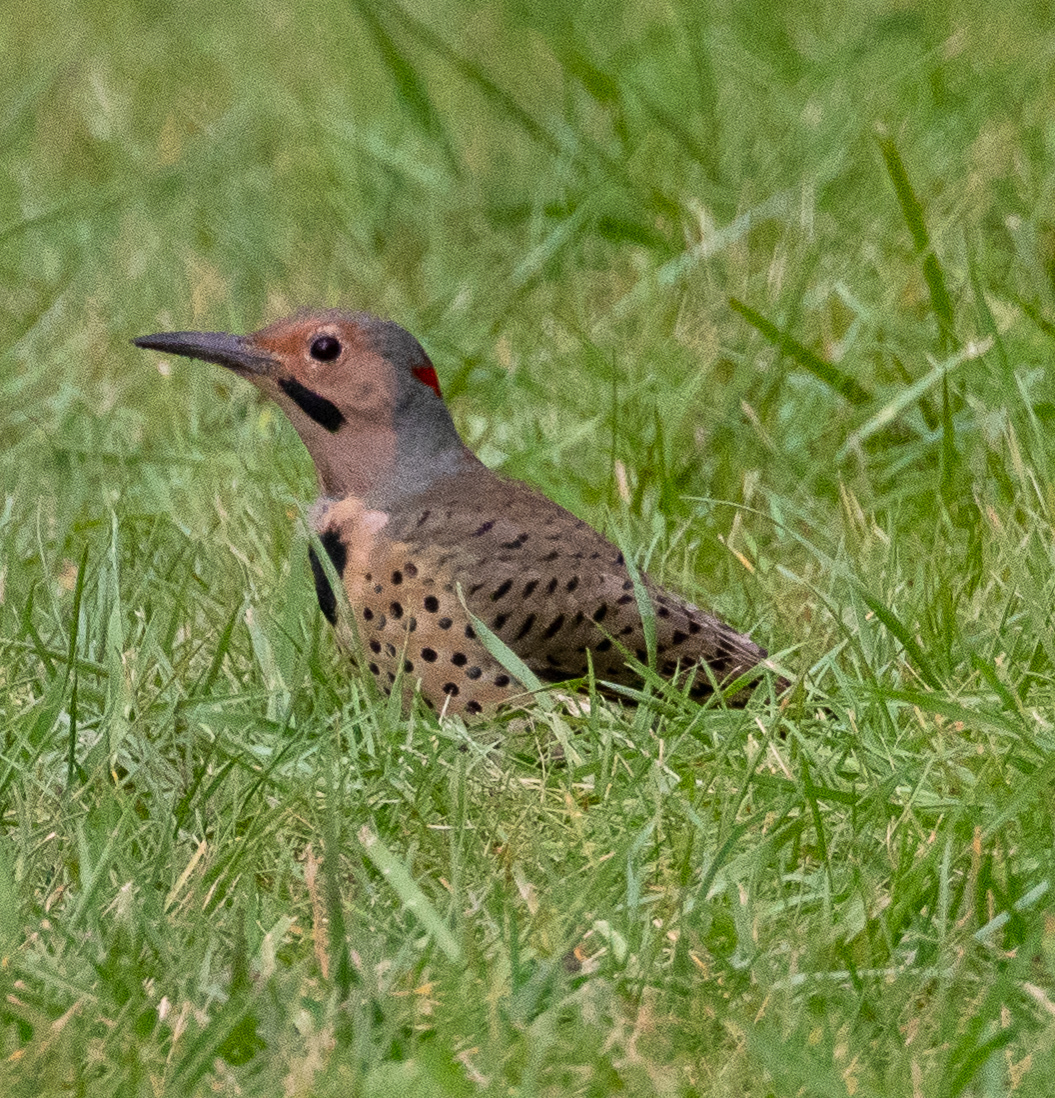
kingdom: Animalia
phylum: Chordata
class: Aves
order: Piciformes
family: Picidae
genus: Colaptes
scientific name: Colaptes auratus
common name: Northern flicker
